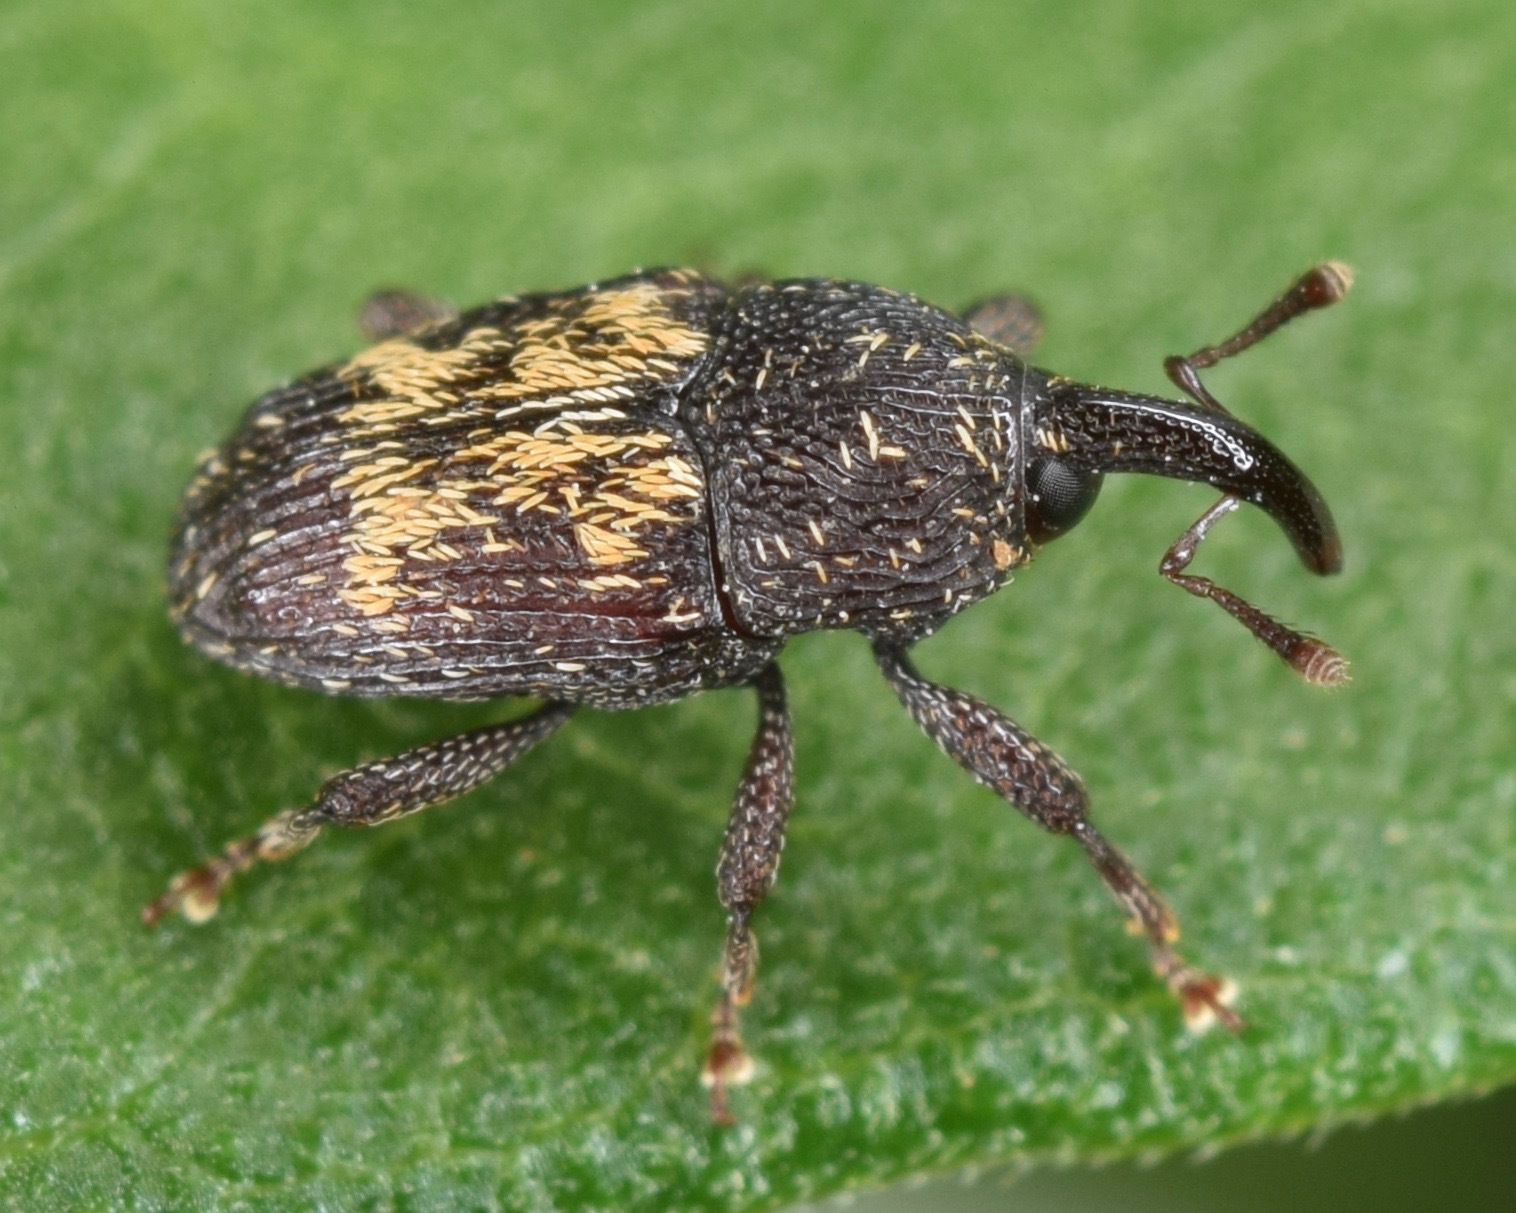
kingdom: Animalia
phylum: Arthropoda
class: Insecta
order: Coleoptera
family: Curculionidae
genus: Glyptobaris
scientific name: Glyptobaris lecontei
